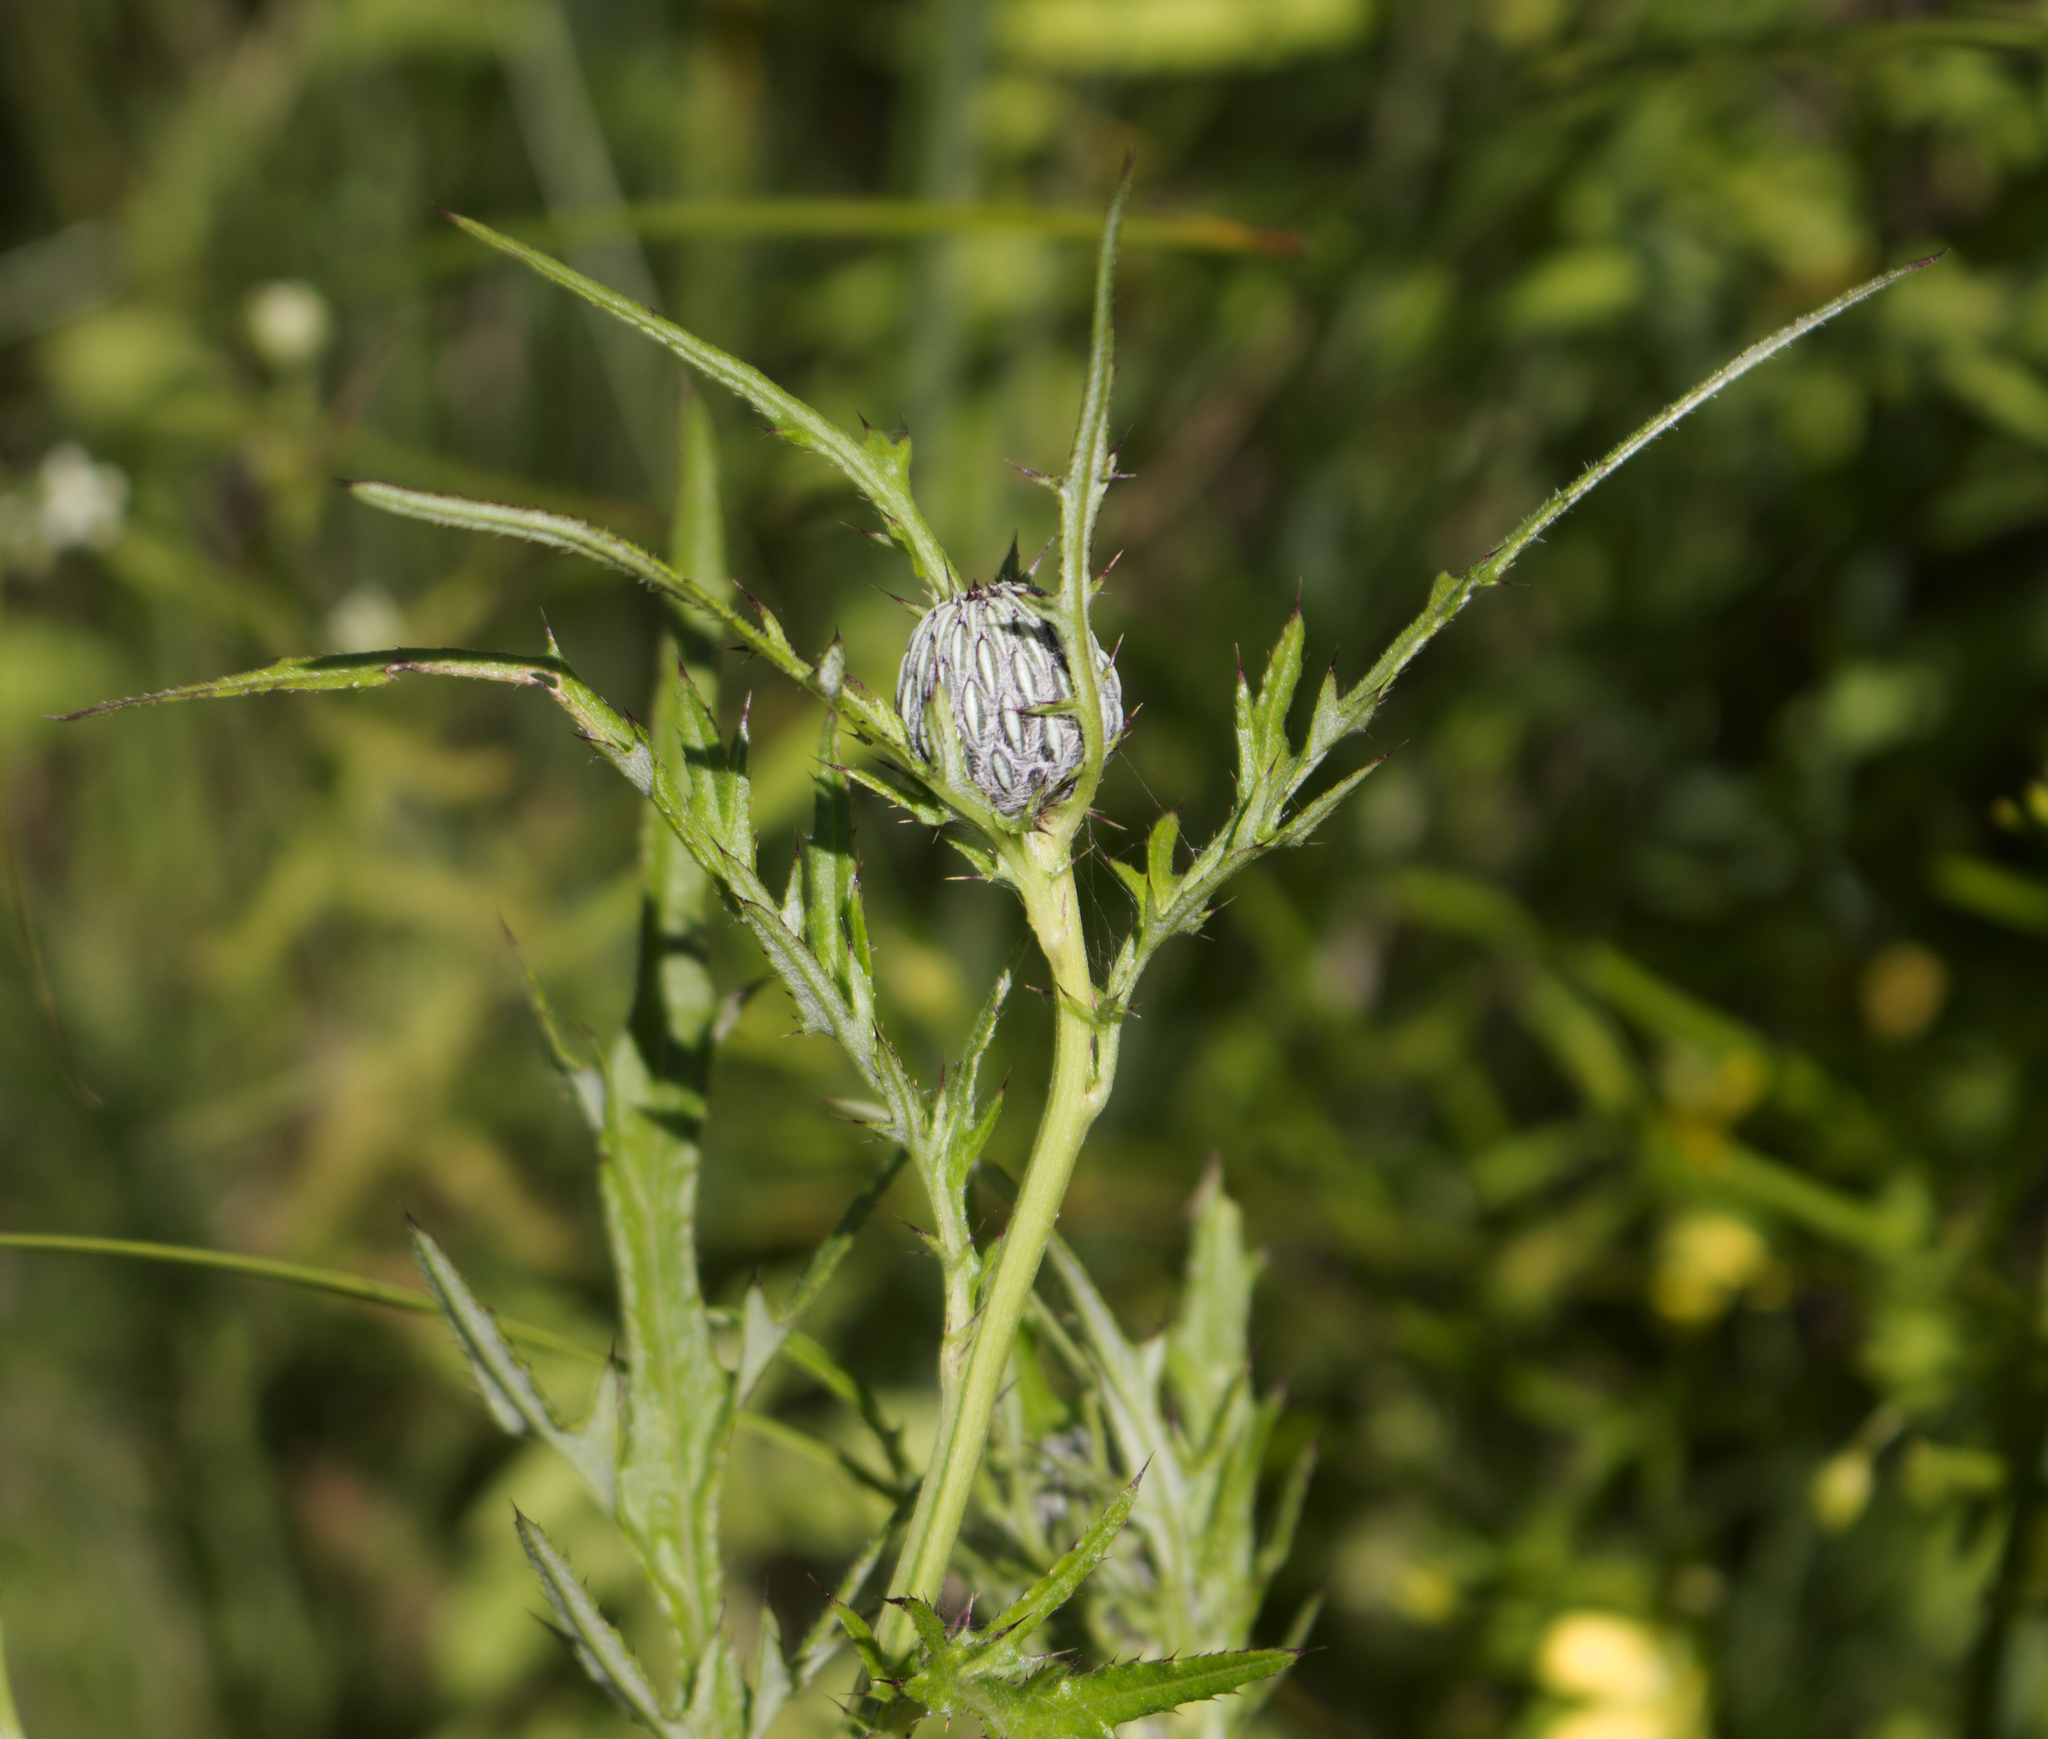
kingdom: Plantae
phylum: Tracheophyta
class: Magnoliopsida
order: Asterales
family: Asteraceae
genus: Cirsium
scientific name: Cirsium muticum
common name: Dunce-nettle
